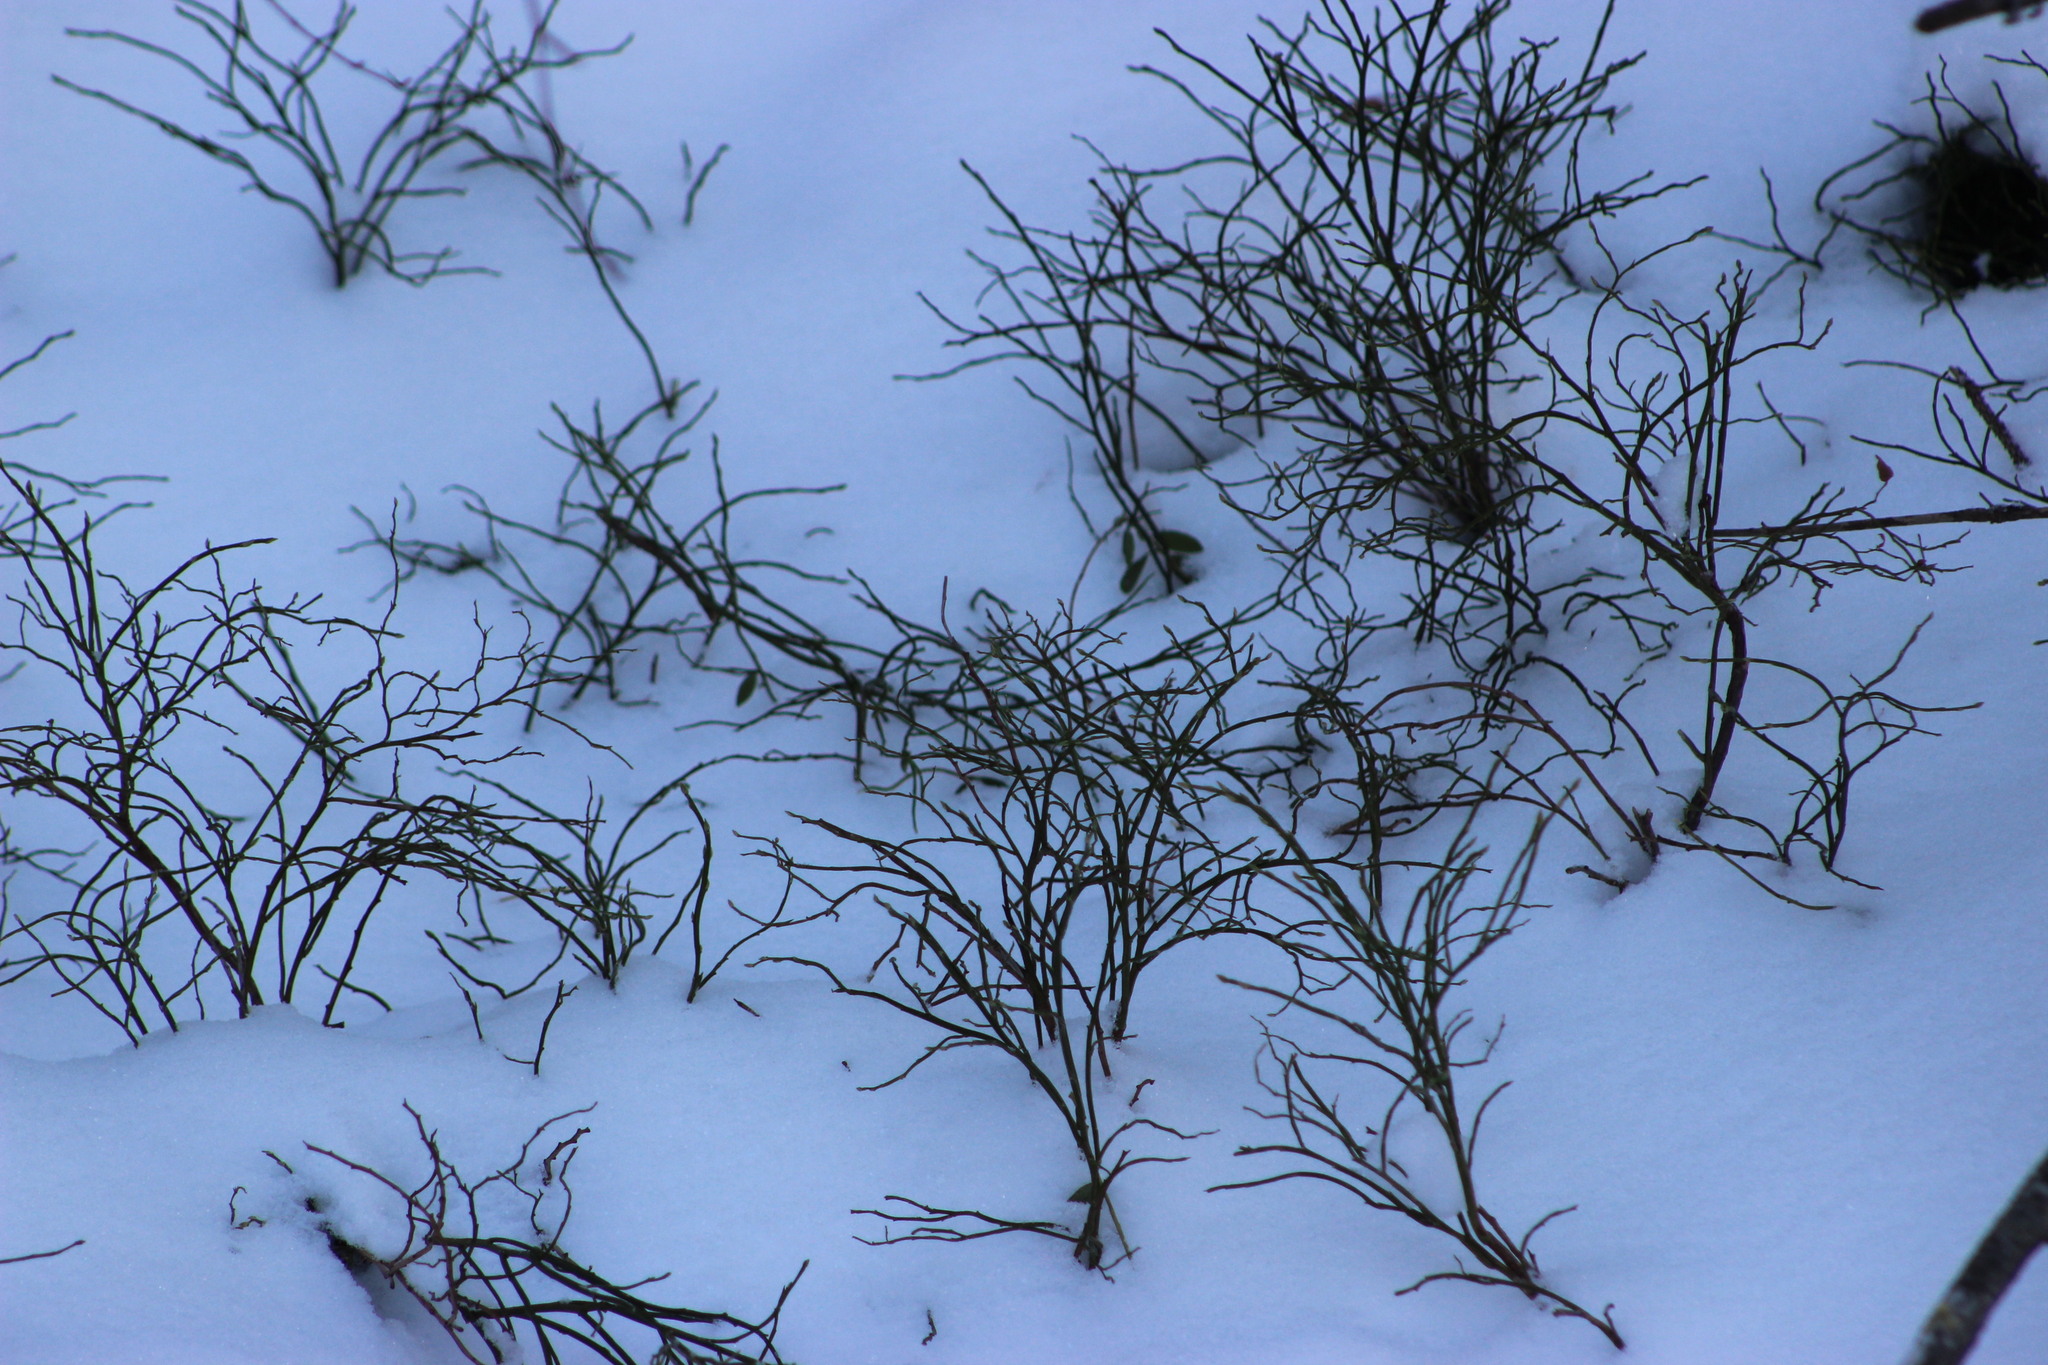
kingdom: Plantae
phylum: Tracheophyta
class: Magnoliopsida
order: Ericales
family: Ericaceae
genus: Vaccinium
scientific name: Vaccinium myrtillus
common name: Bilberry
